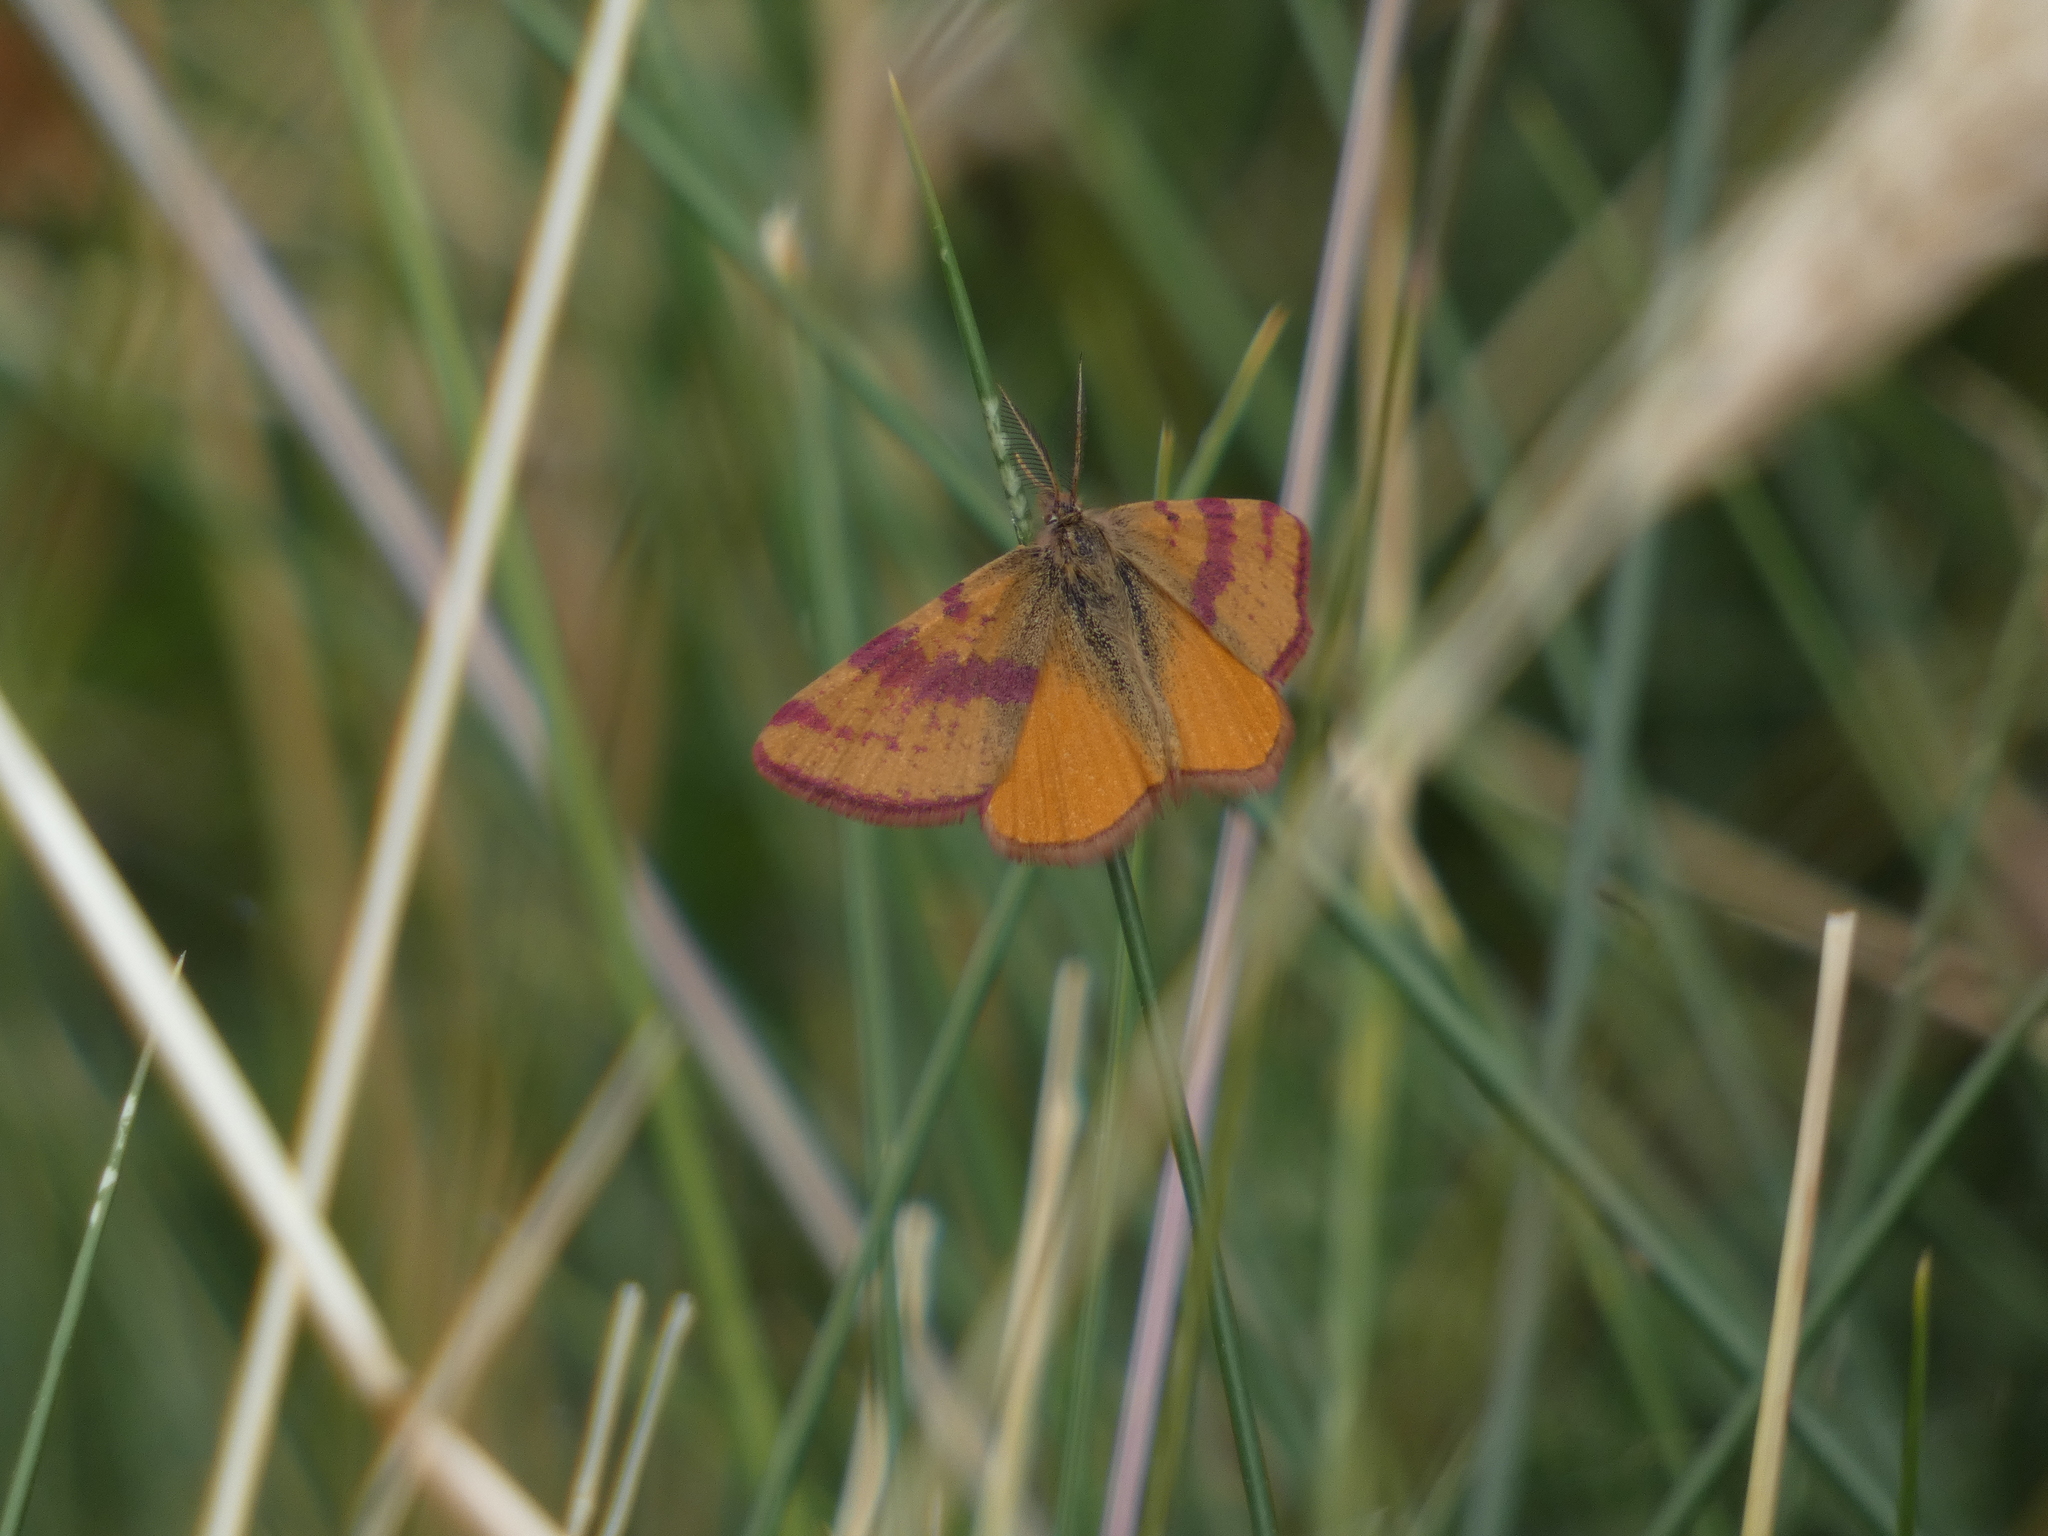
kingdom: Animalia
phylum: Arthropoda
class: Insecta
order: Lepidoptera
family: Geometridae
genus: Lythria
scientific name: Lythria cruentaria
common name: Purple-barred yellow
